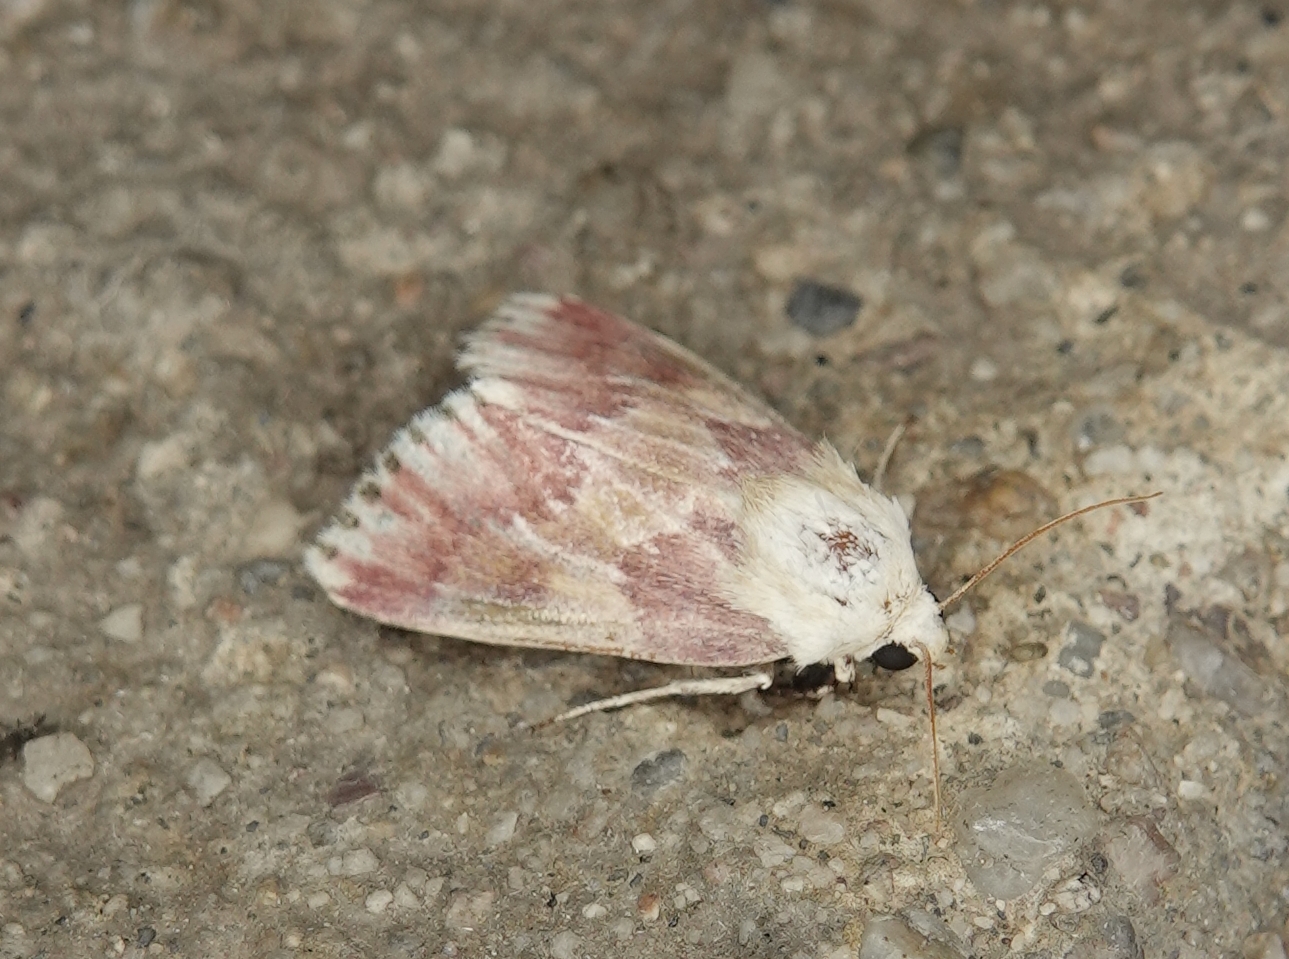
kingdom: Animalia
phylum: Arthropoda
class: Insecta
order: Lepidoptera
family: Noctuidae
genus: Schinia
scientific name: Schinia sanguinea
